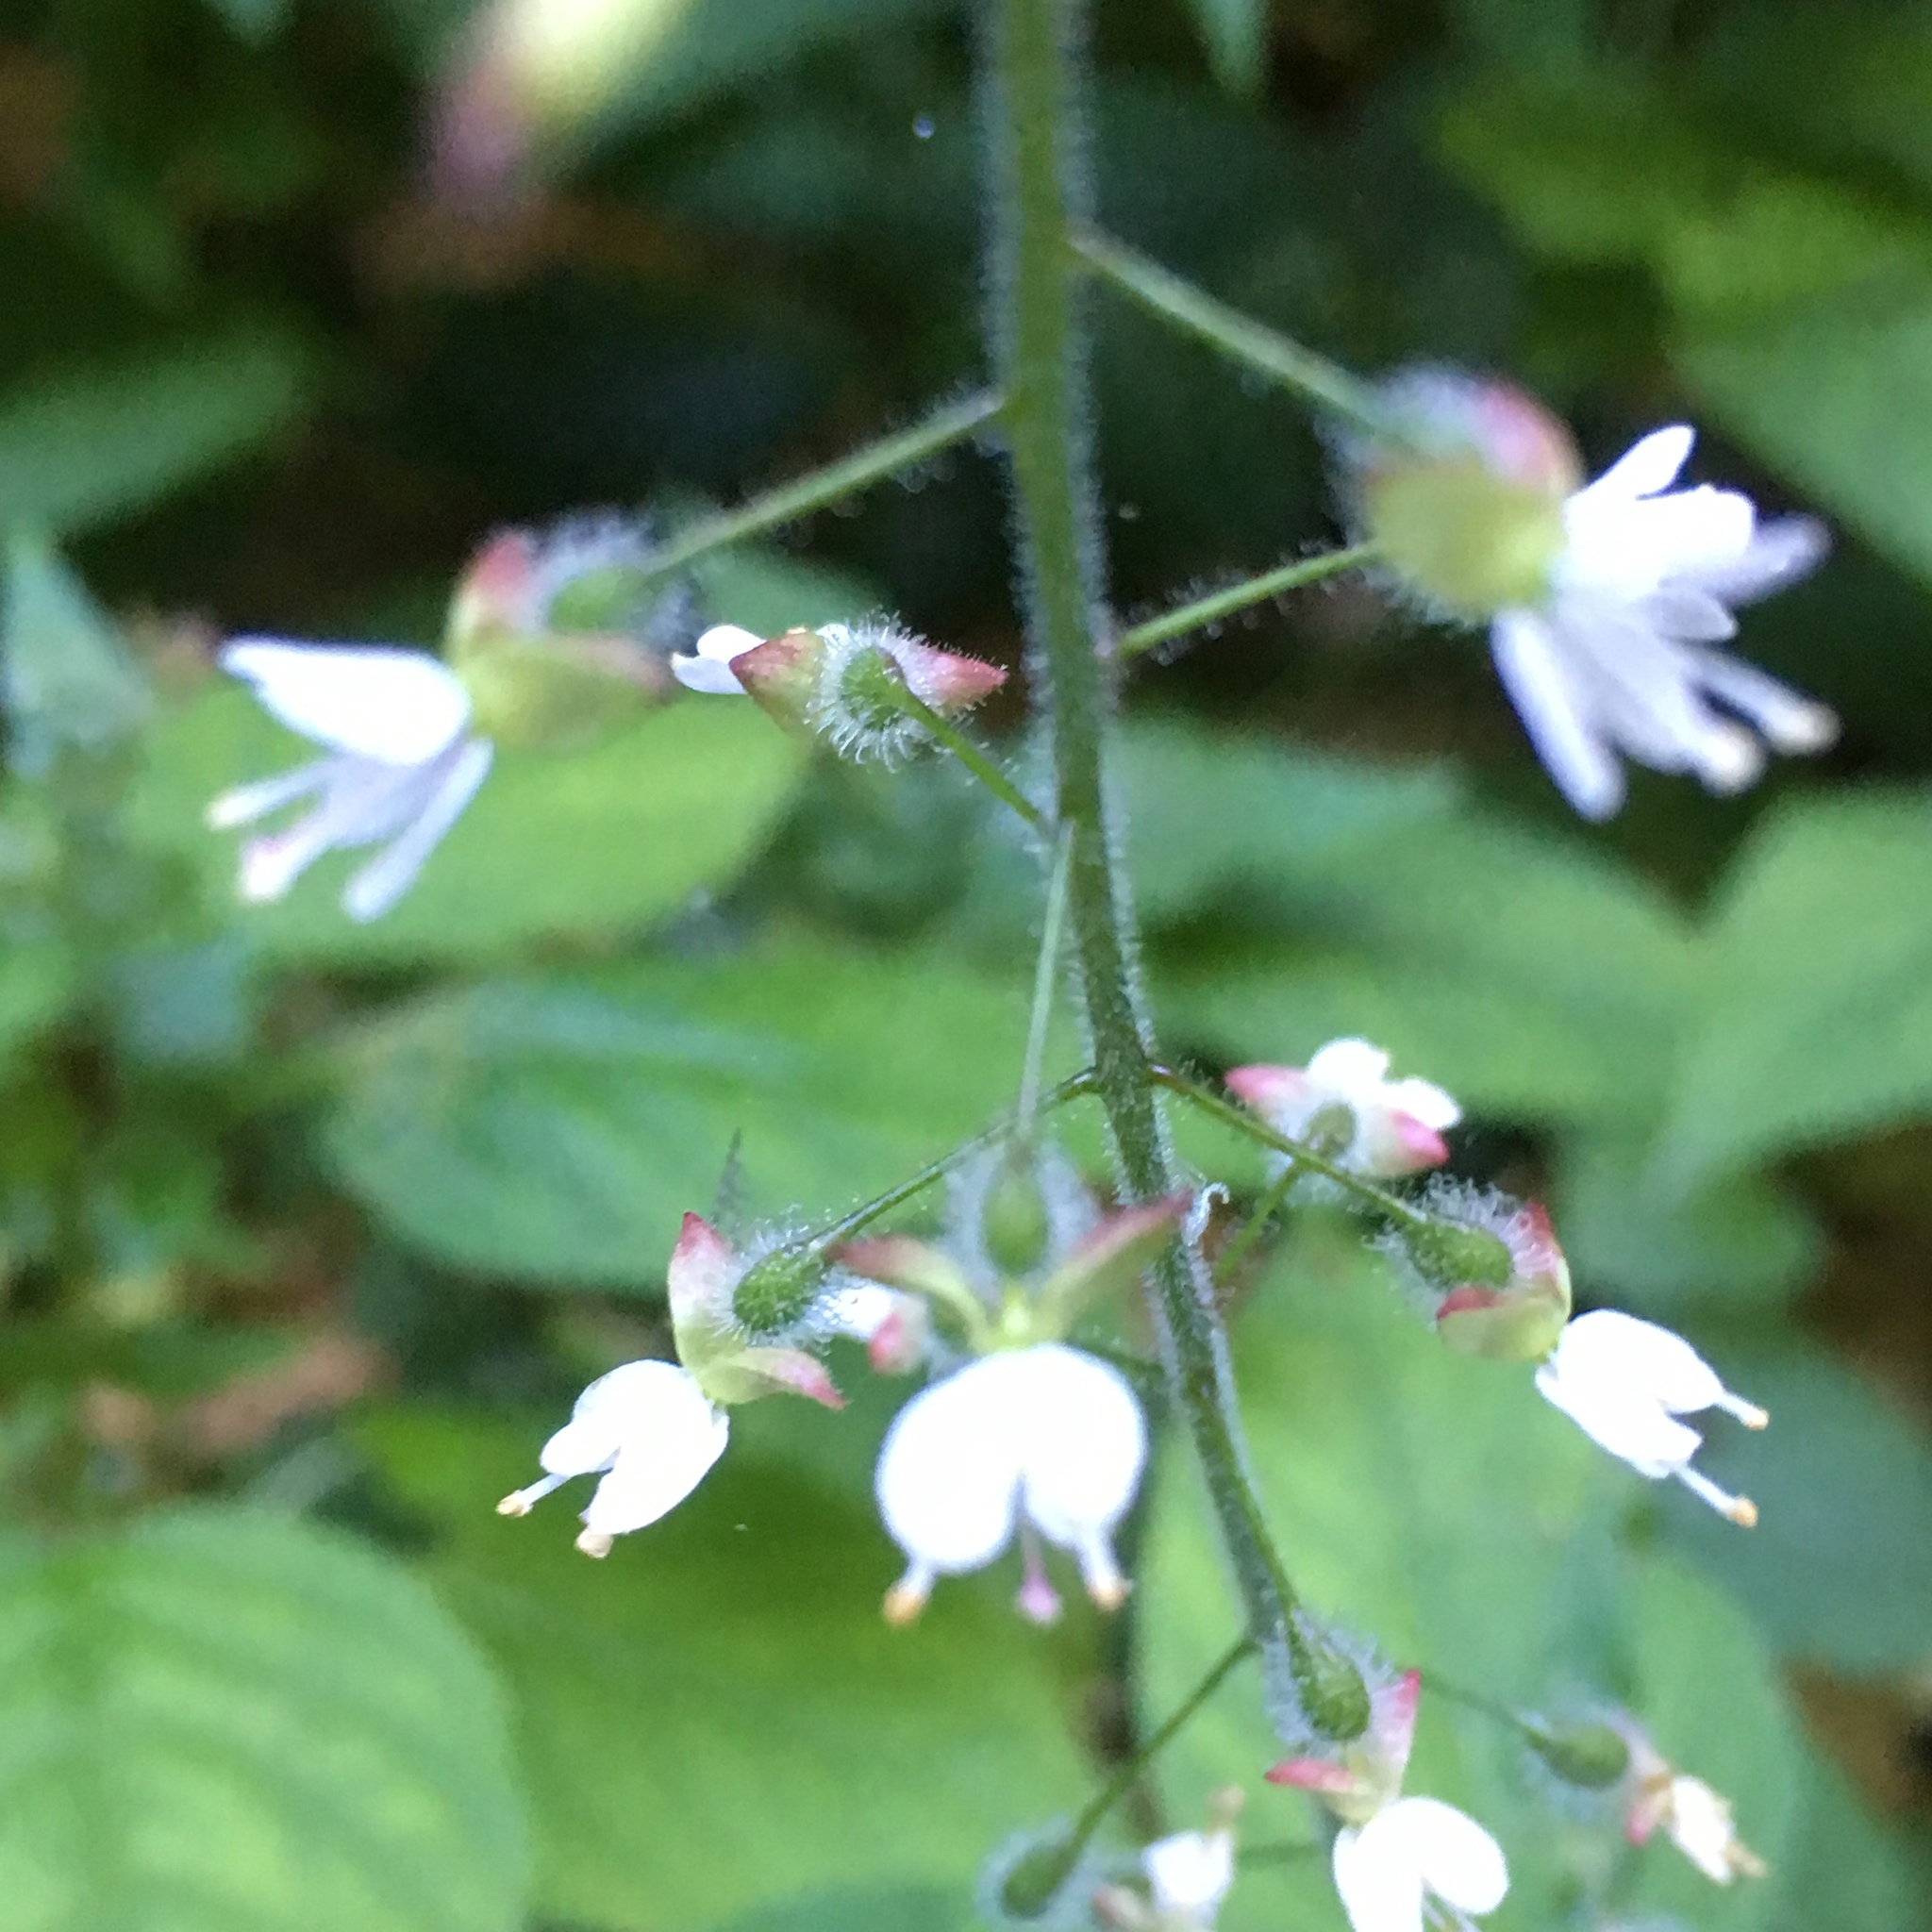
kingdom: Plantae
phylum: Tracheophyta
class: Magnoliopsida
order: Myrtales
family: Onagraceae
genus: Circaea
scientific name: Circaea lutetiana
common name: Enchanter's-nightshade
